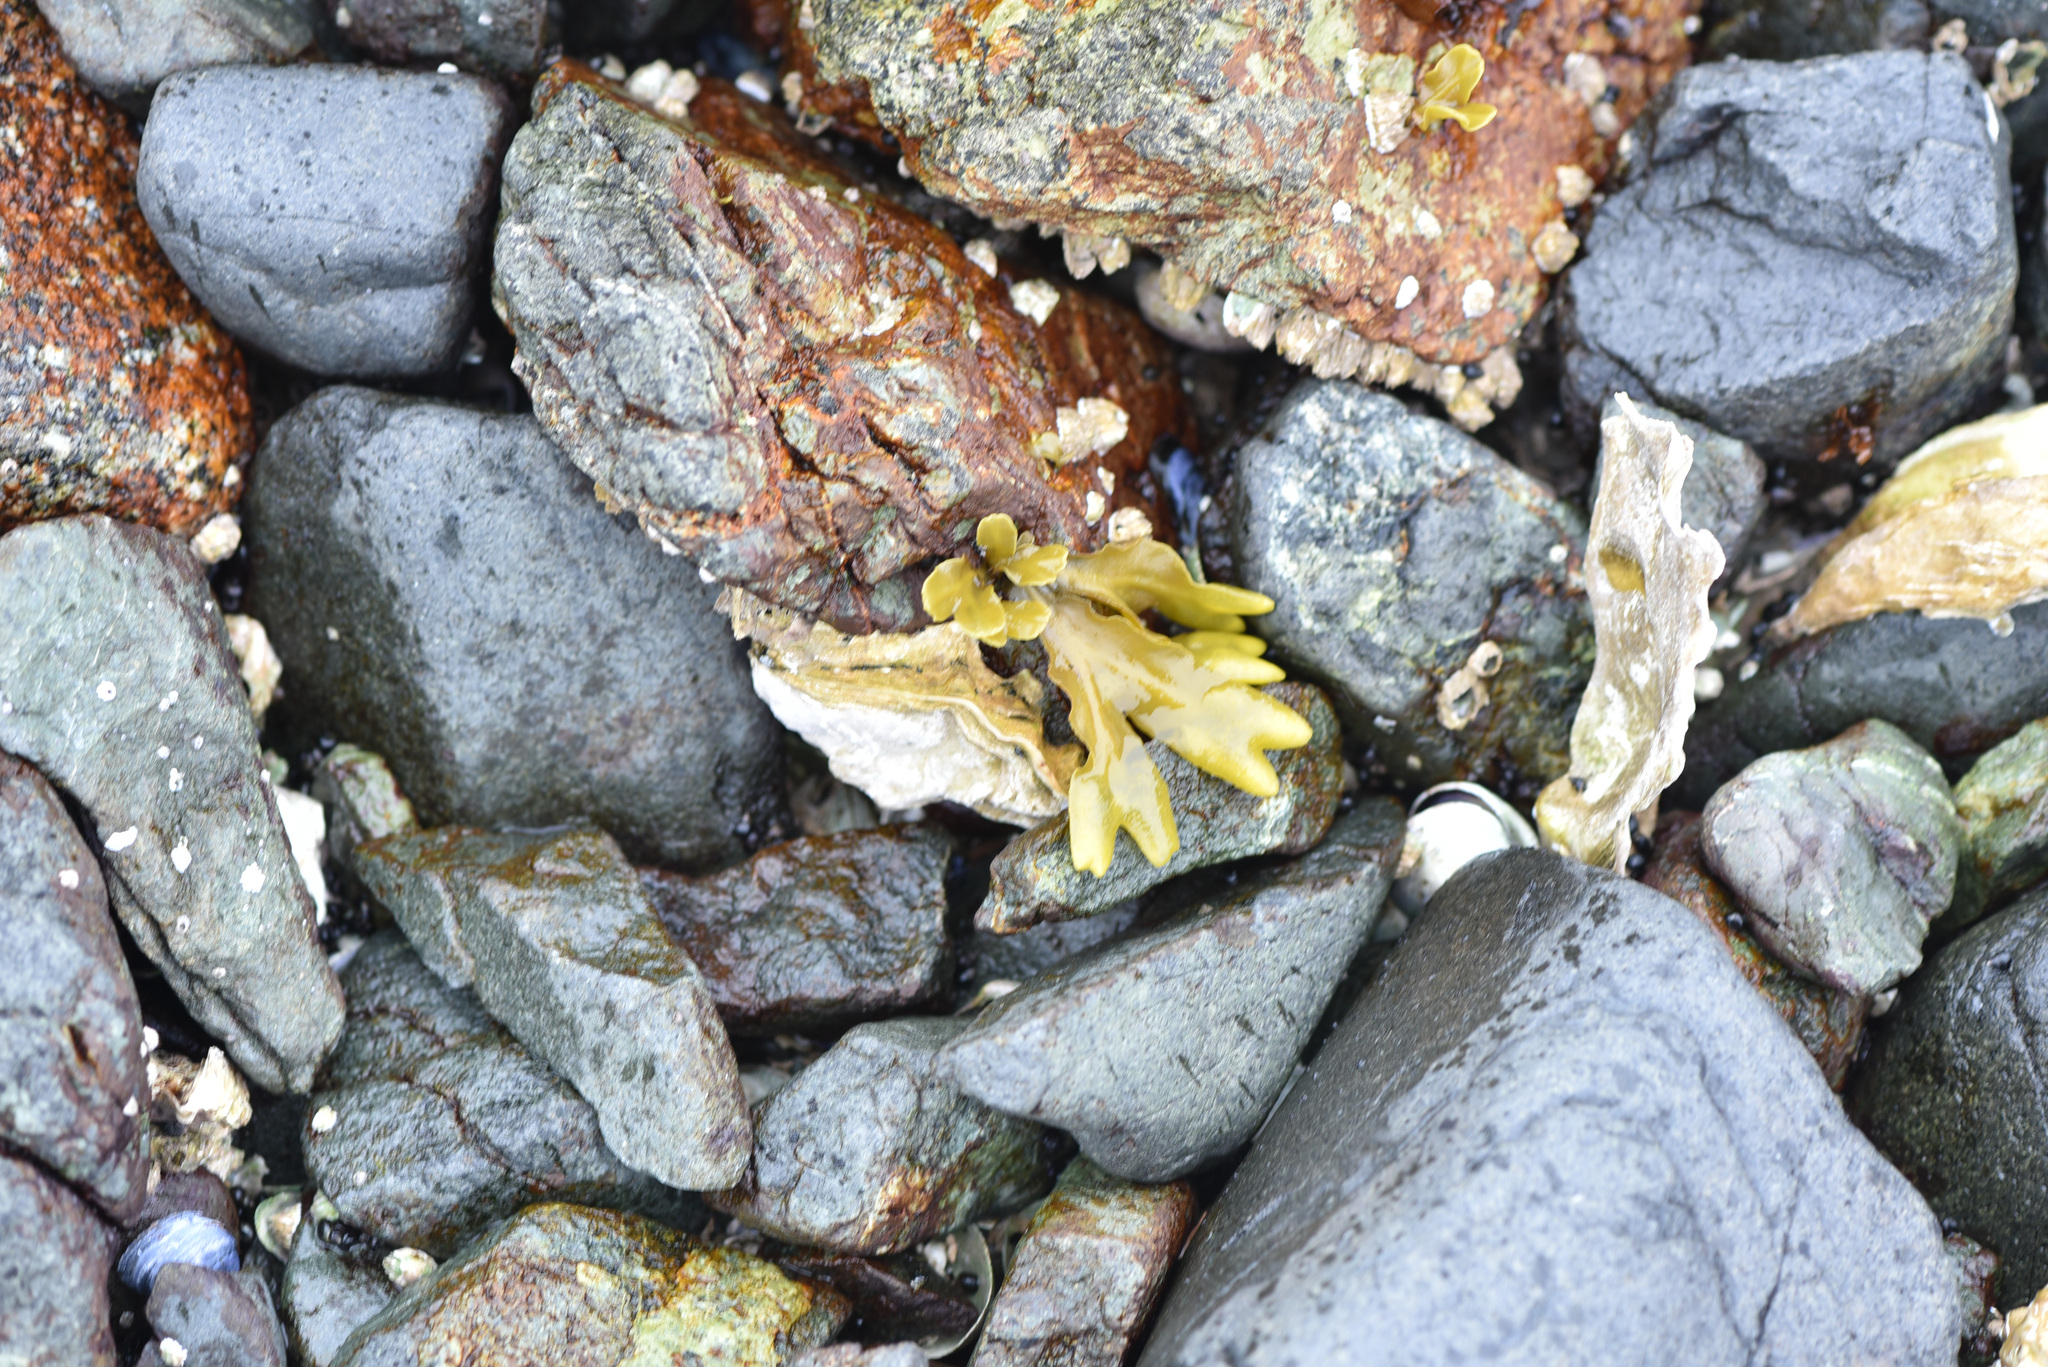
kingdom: Chromista
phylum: Ochrophyta
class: Phaeophyceae
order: Fucales
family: Fucaceae
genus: Fucus
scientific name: Fucus distichus
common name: Rockweed
